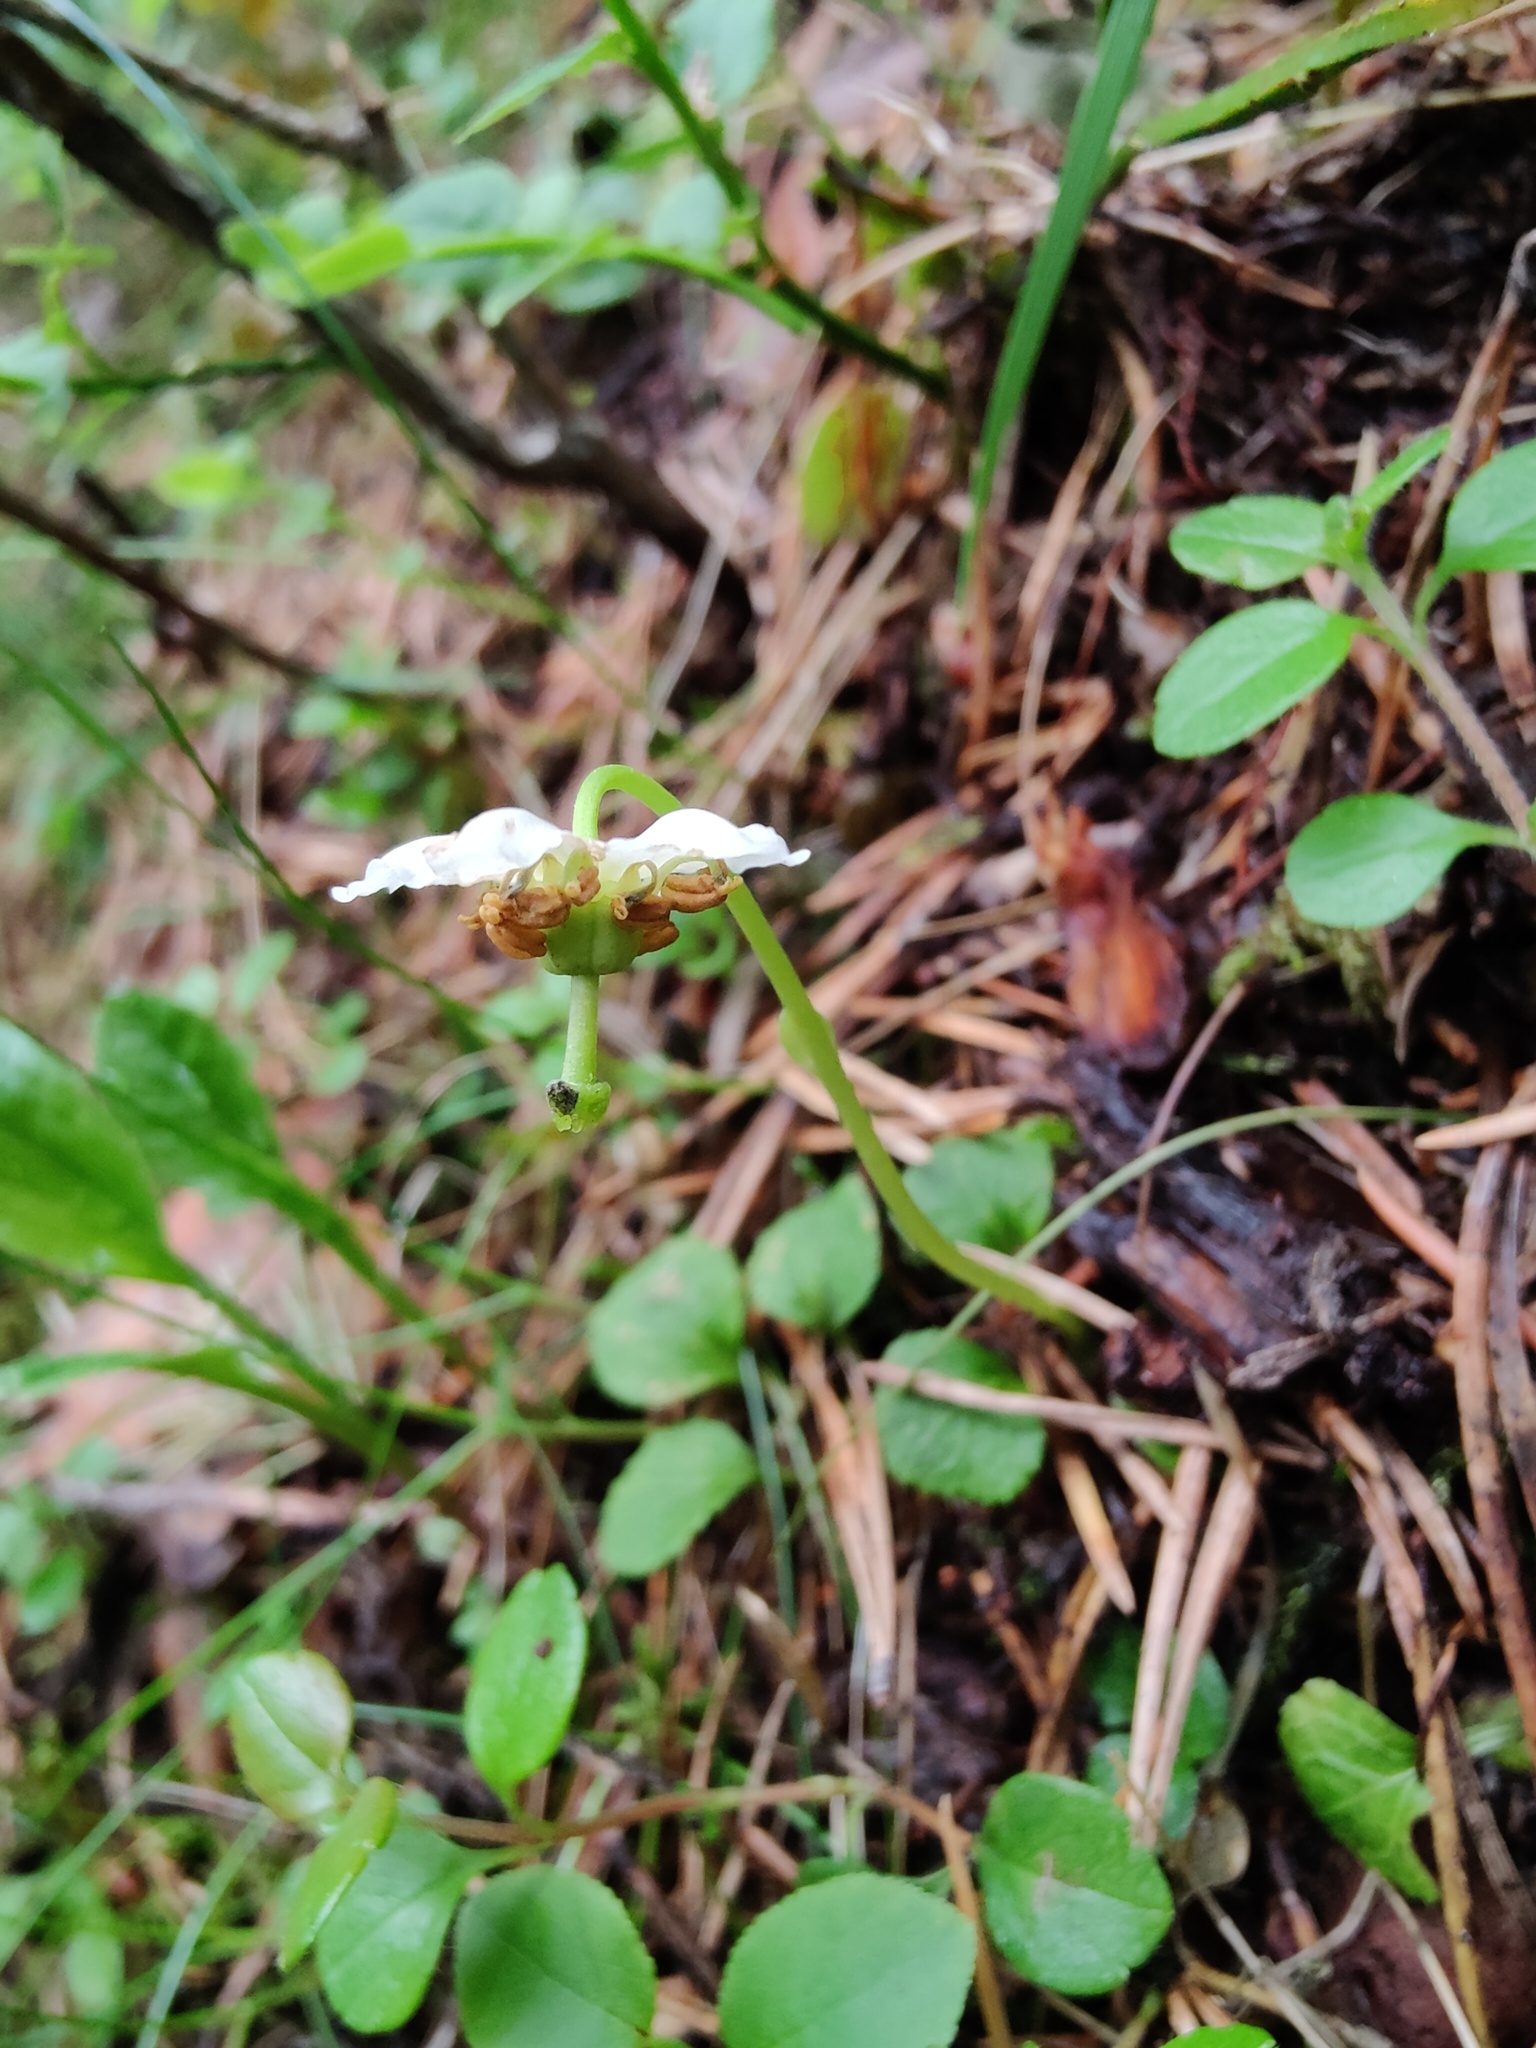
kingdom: Plantae
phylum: Tracheophyta
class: Magnoliopsida
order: Ericales
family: Ericaceae
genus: Moneses
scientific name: Moneses uniflora
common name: One-flowered wintergreen
